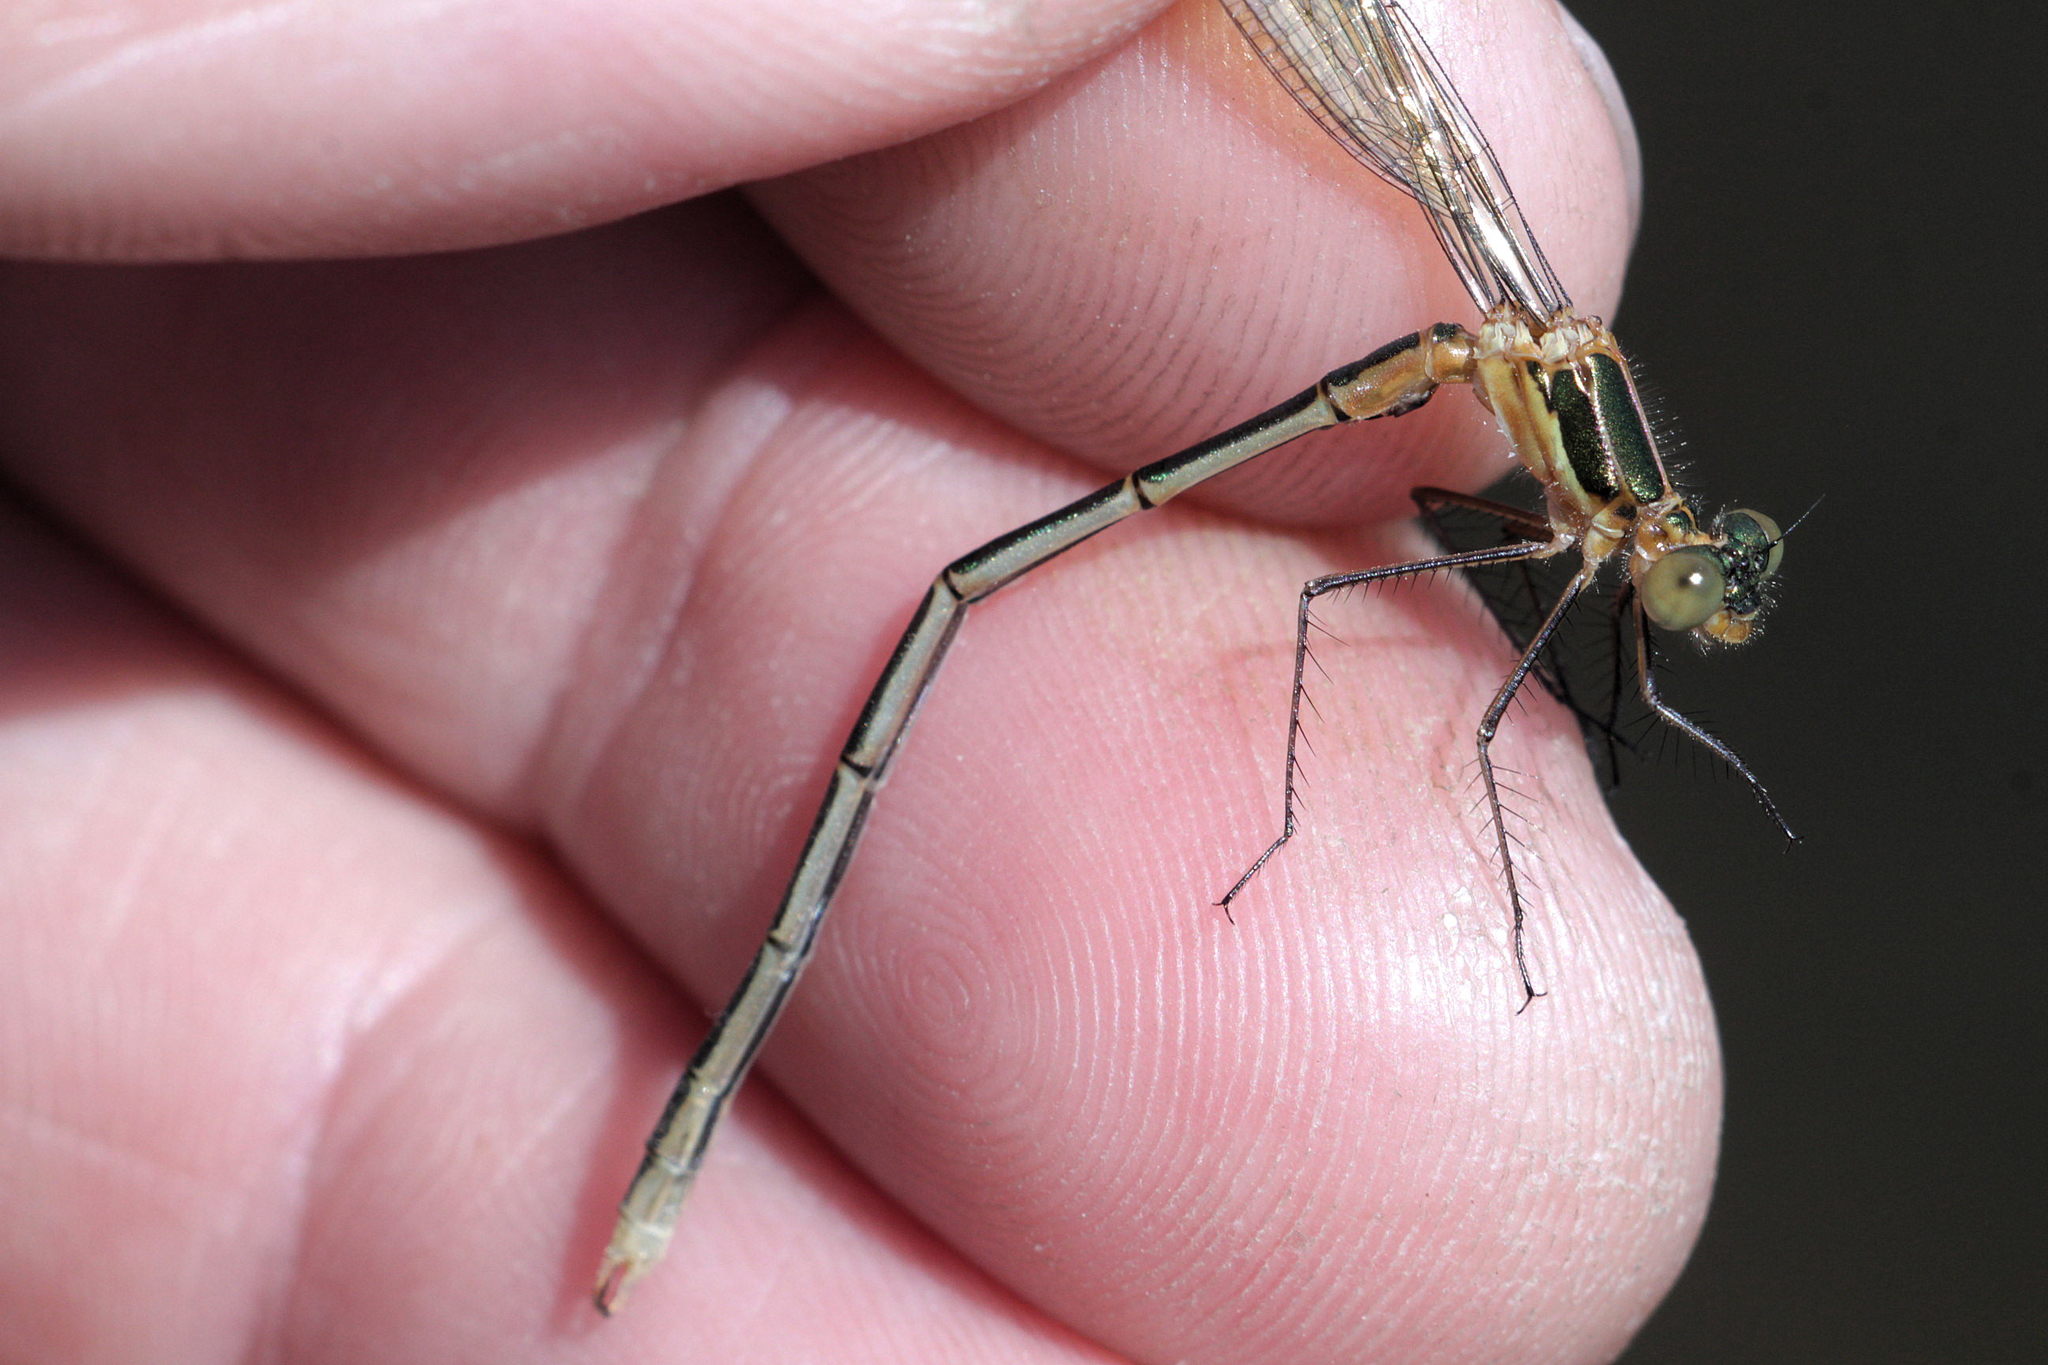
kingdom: Animalia
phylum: Arthropoda
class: Insecta
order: Odonata
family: Lestidae
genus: Lestes
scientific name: Lestes sponsa
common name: Common spreadwing
